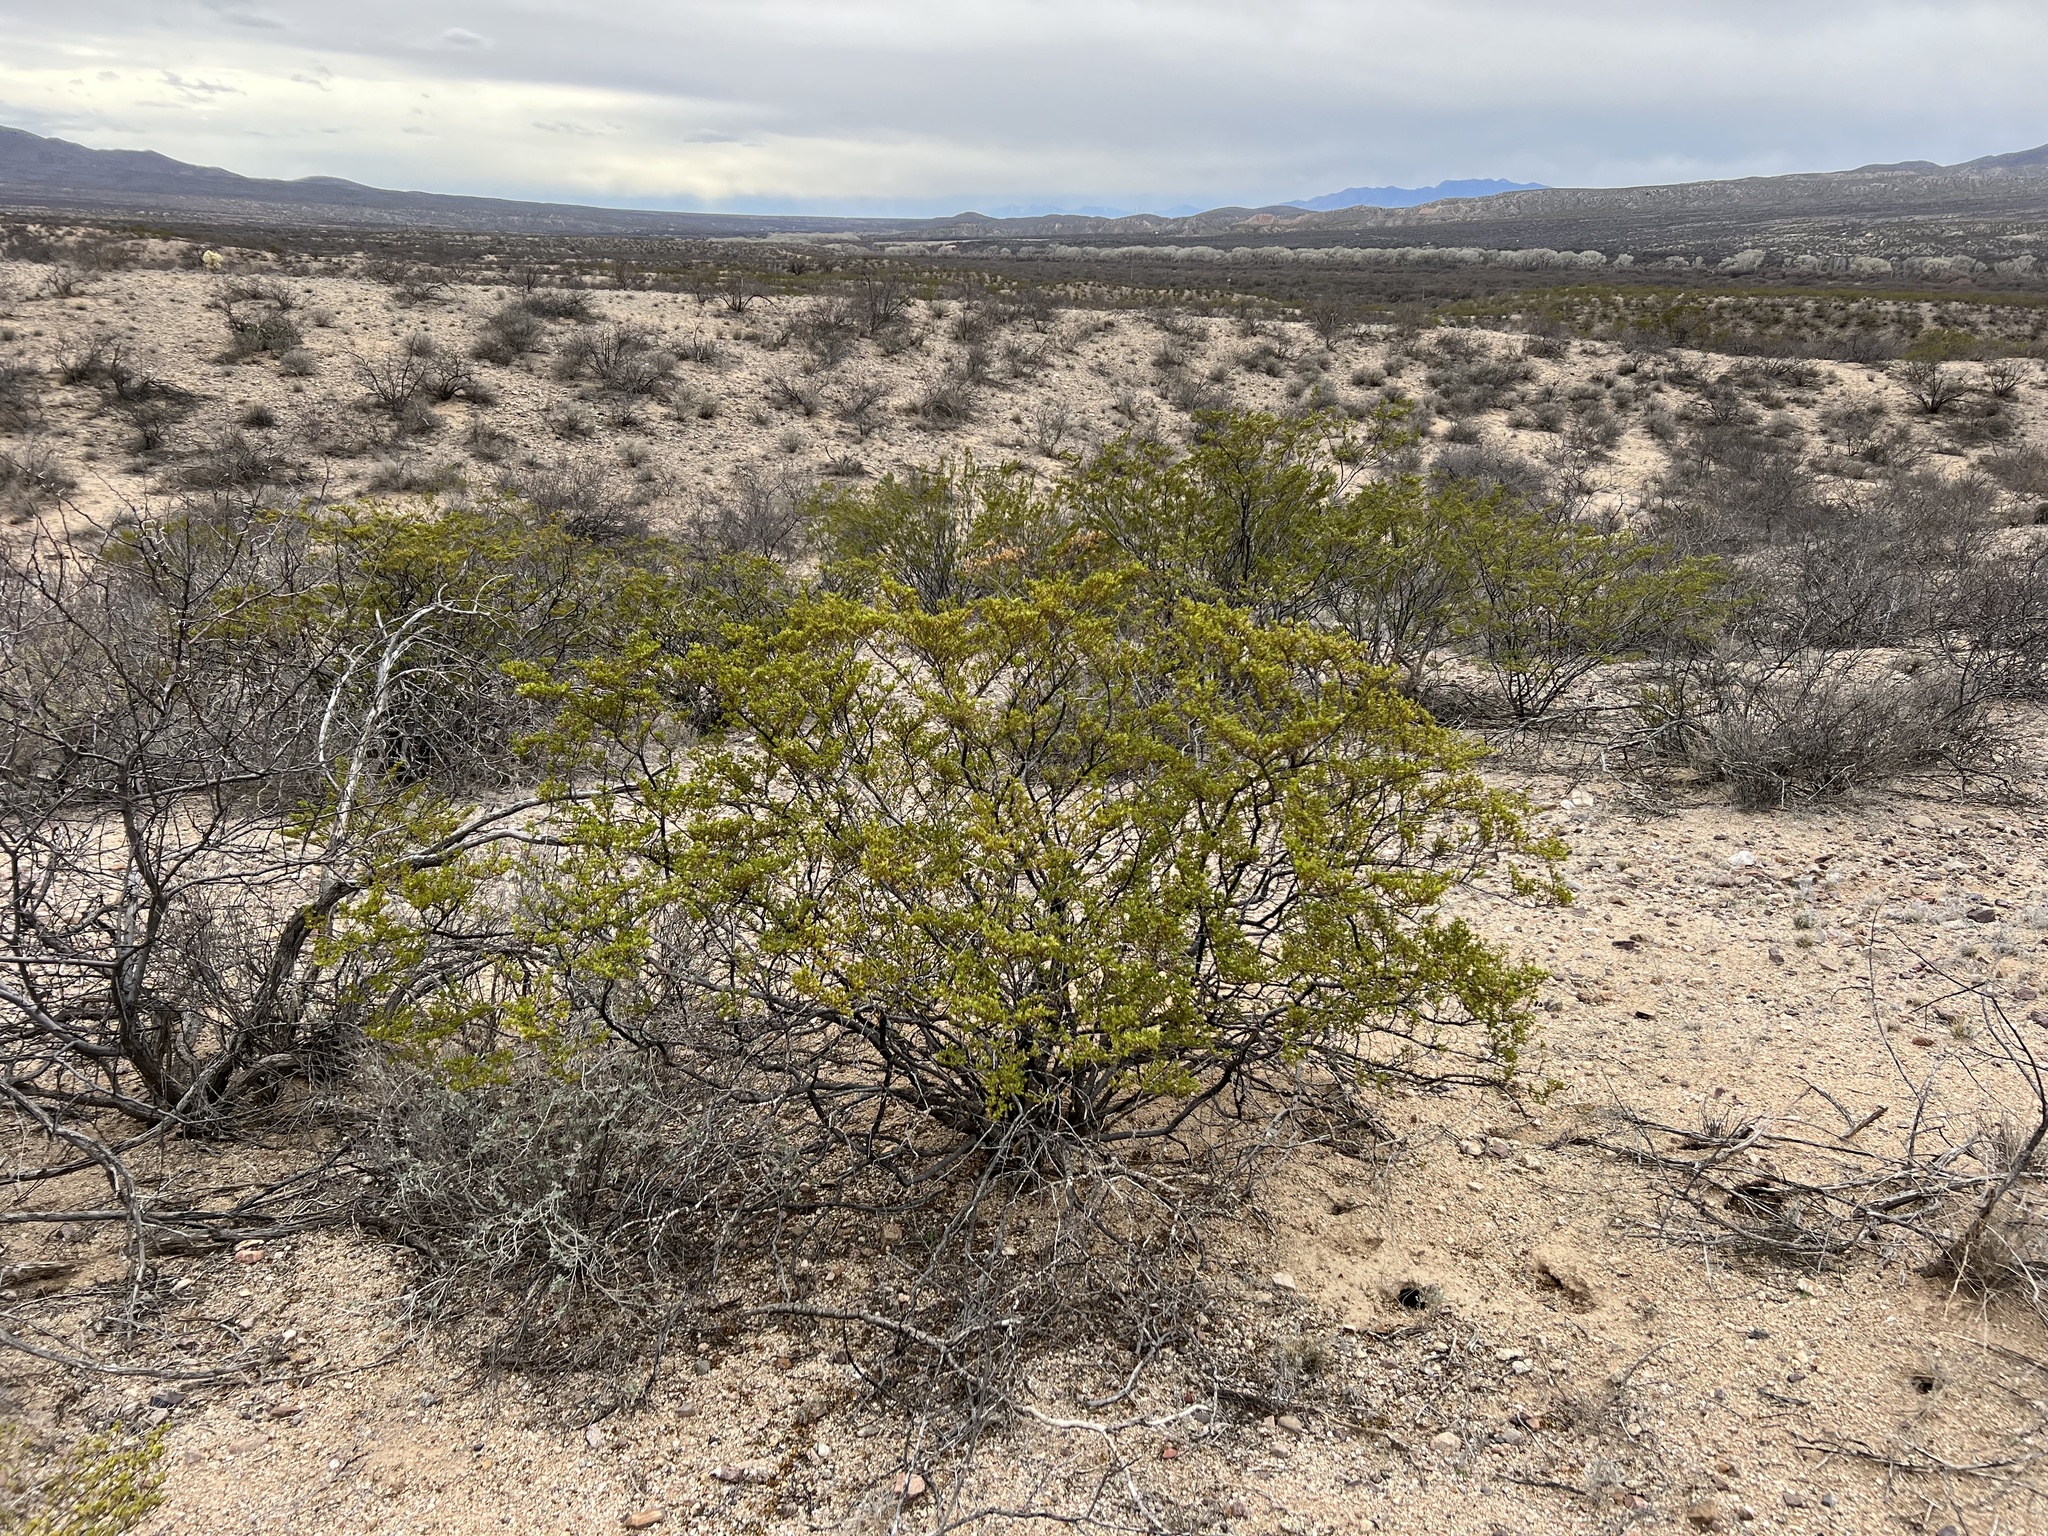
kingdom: Plantae
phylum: Tracheophyta
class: Magnoliopsida
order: Zygophyllales
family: Zygophyllaceae
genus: Larrea
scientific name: Larrea tridentata
